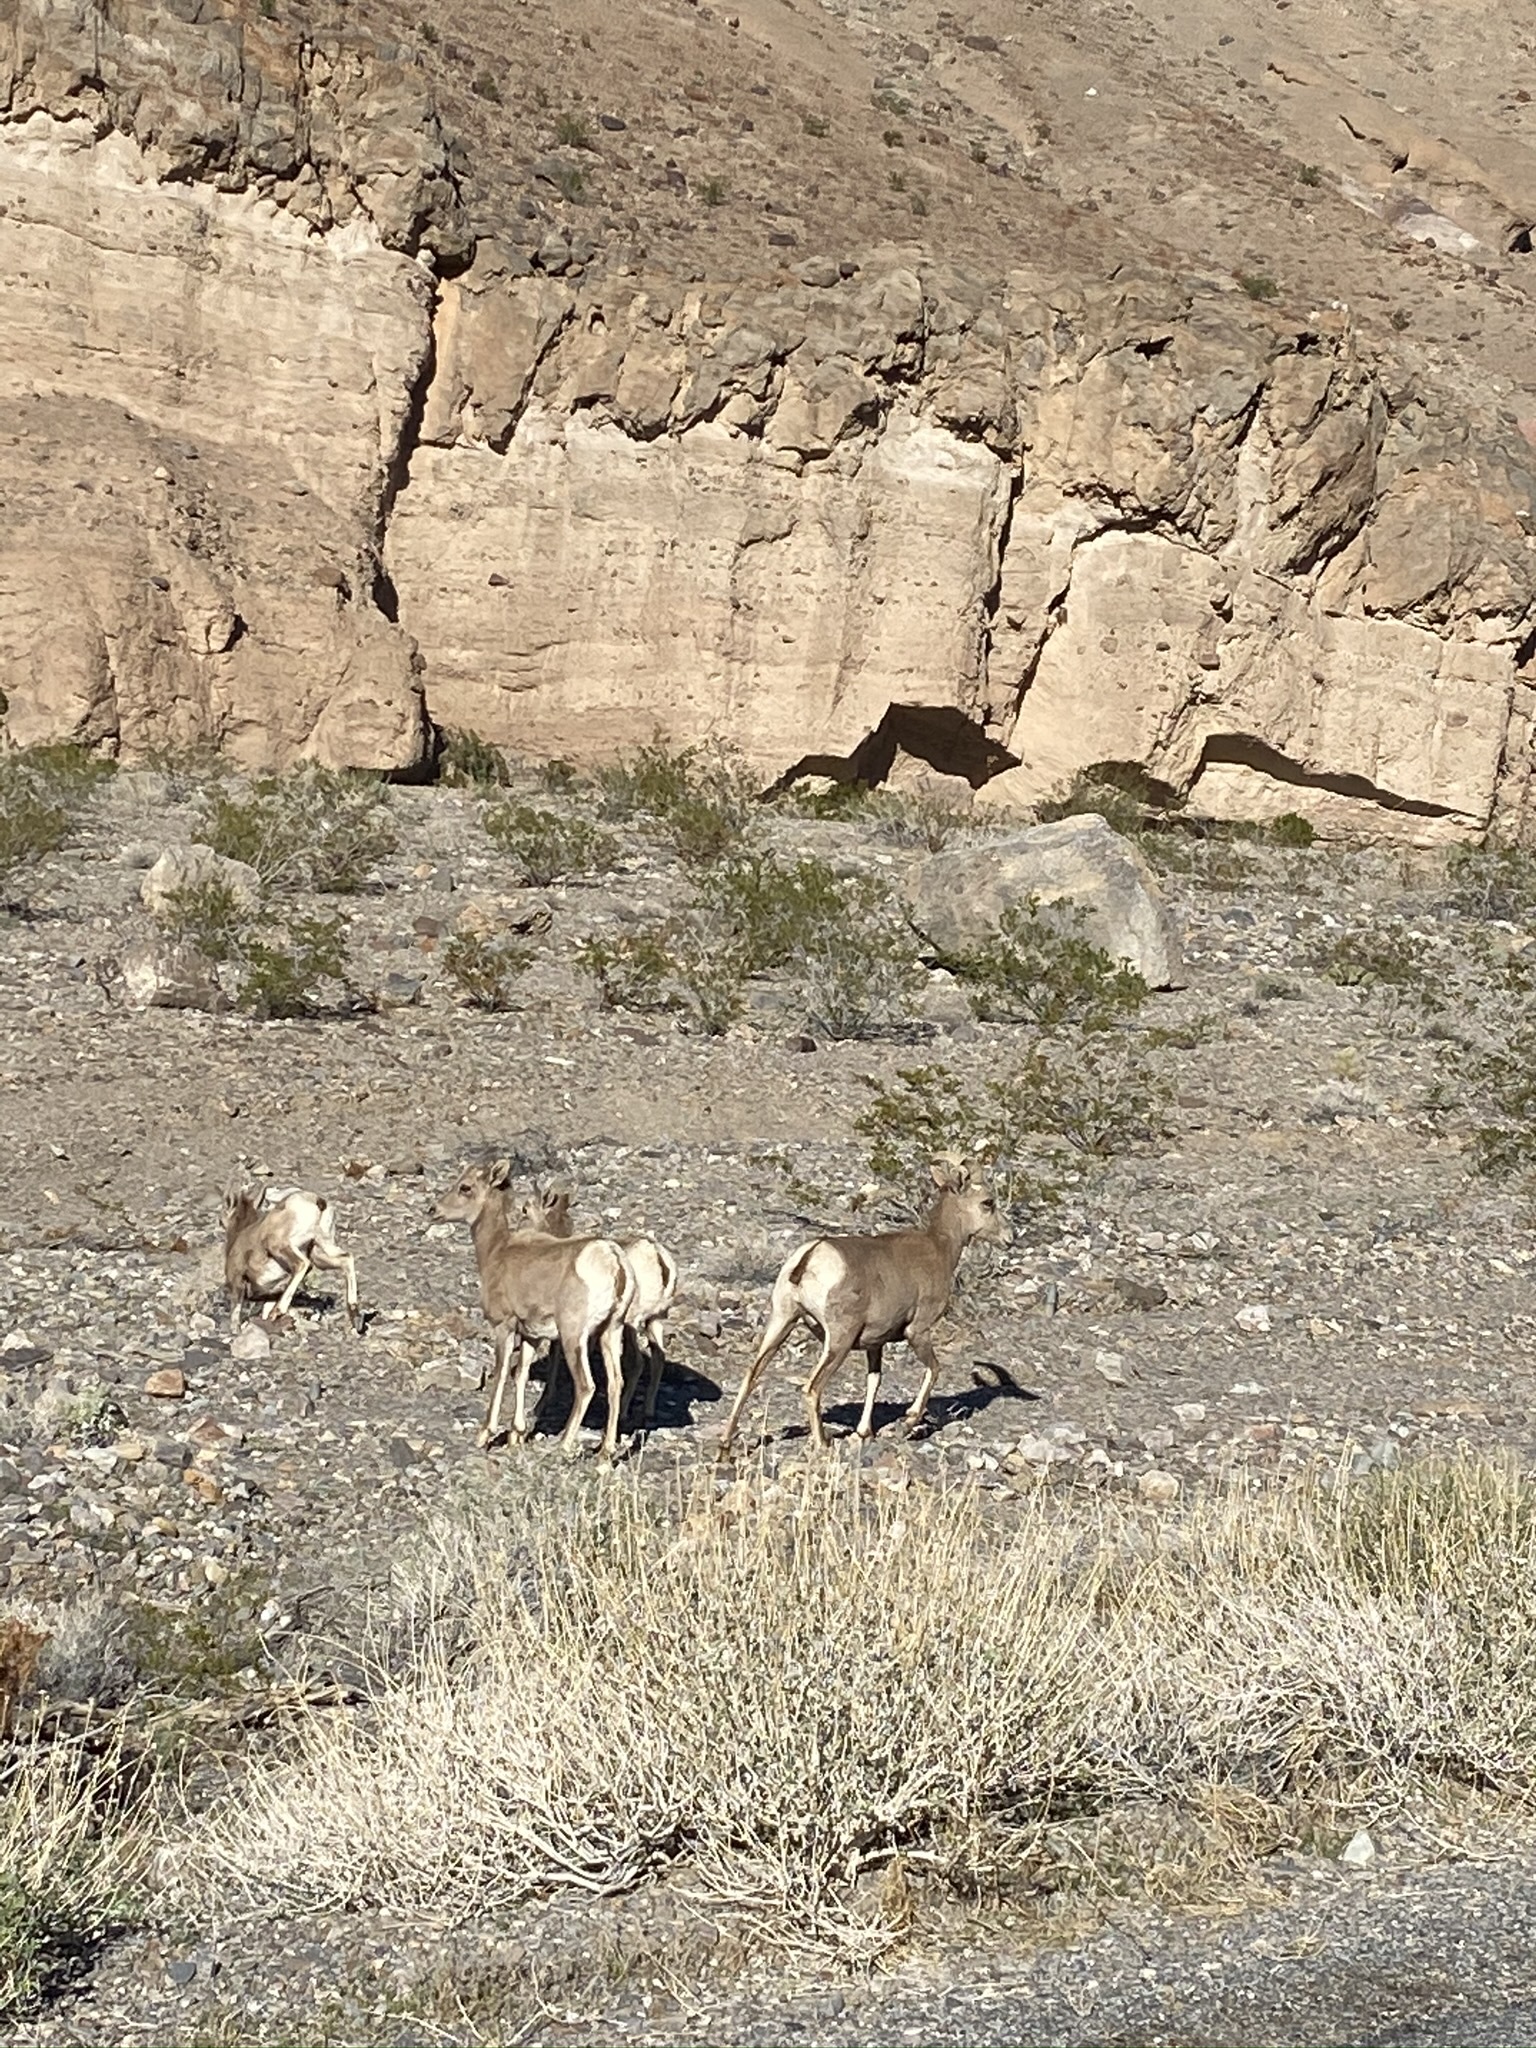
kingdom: Animalia
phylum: Chordata
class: Mammalia
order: Artiodactyla
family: Bovidae
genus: Ovis
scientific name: Ovis canadensis
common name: Bighorn sheep
